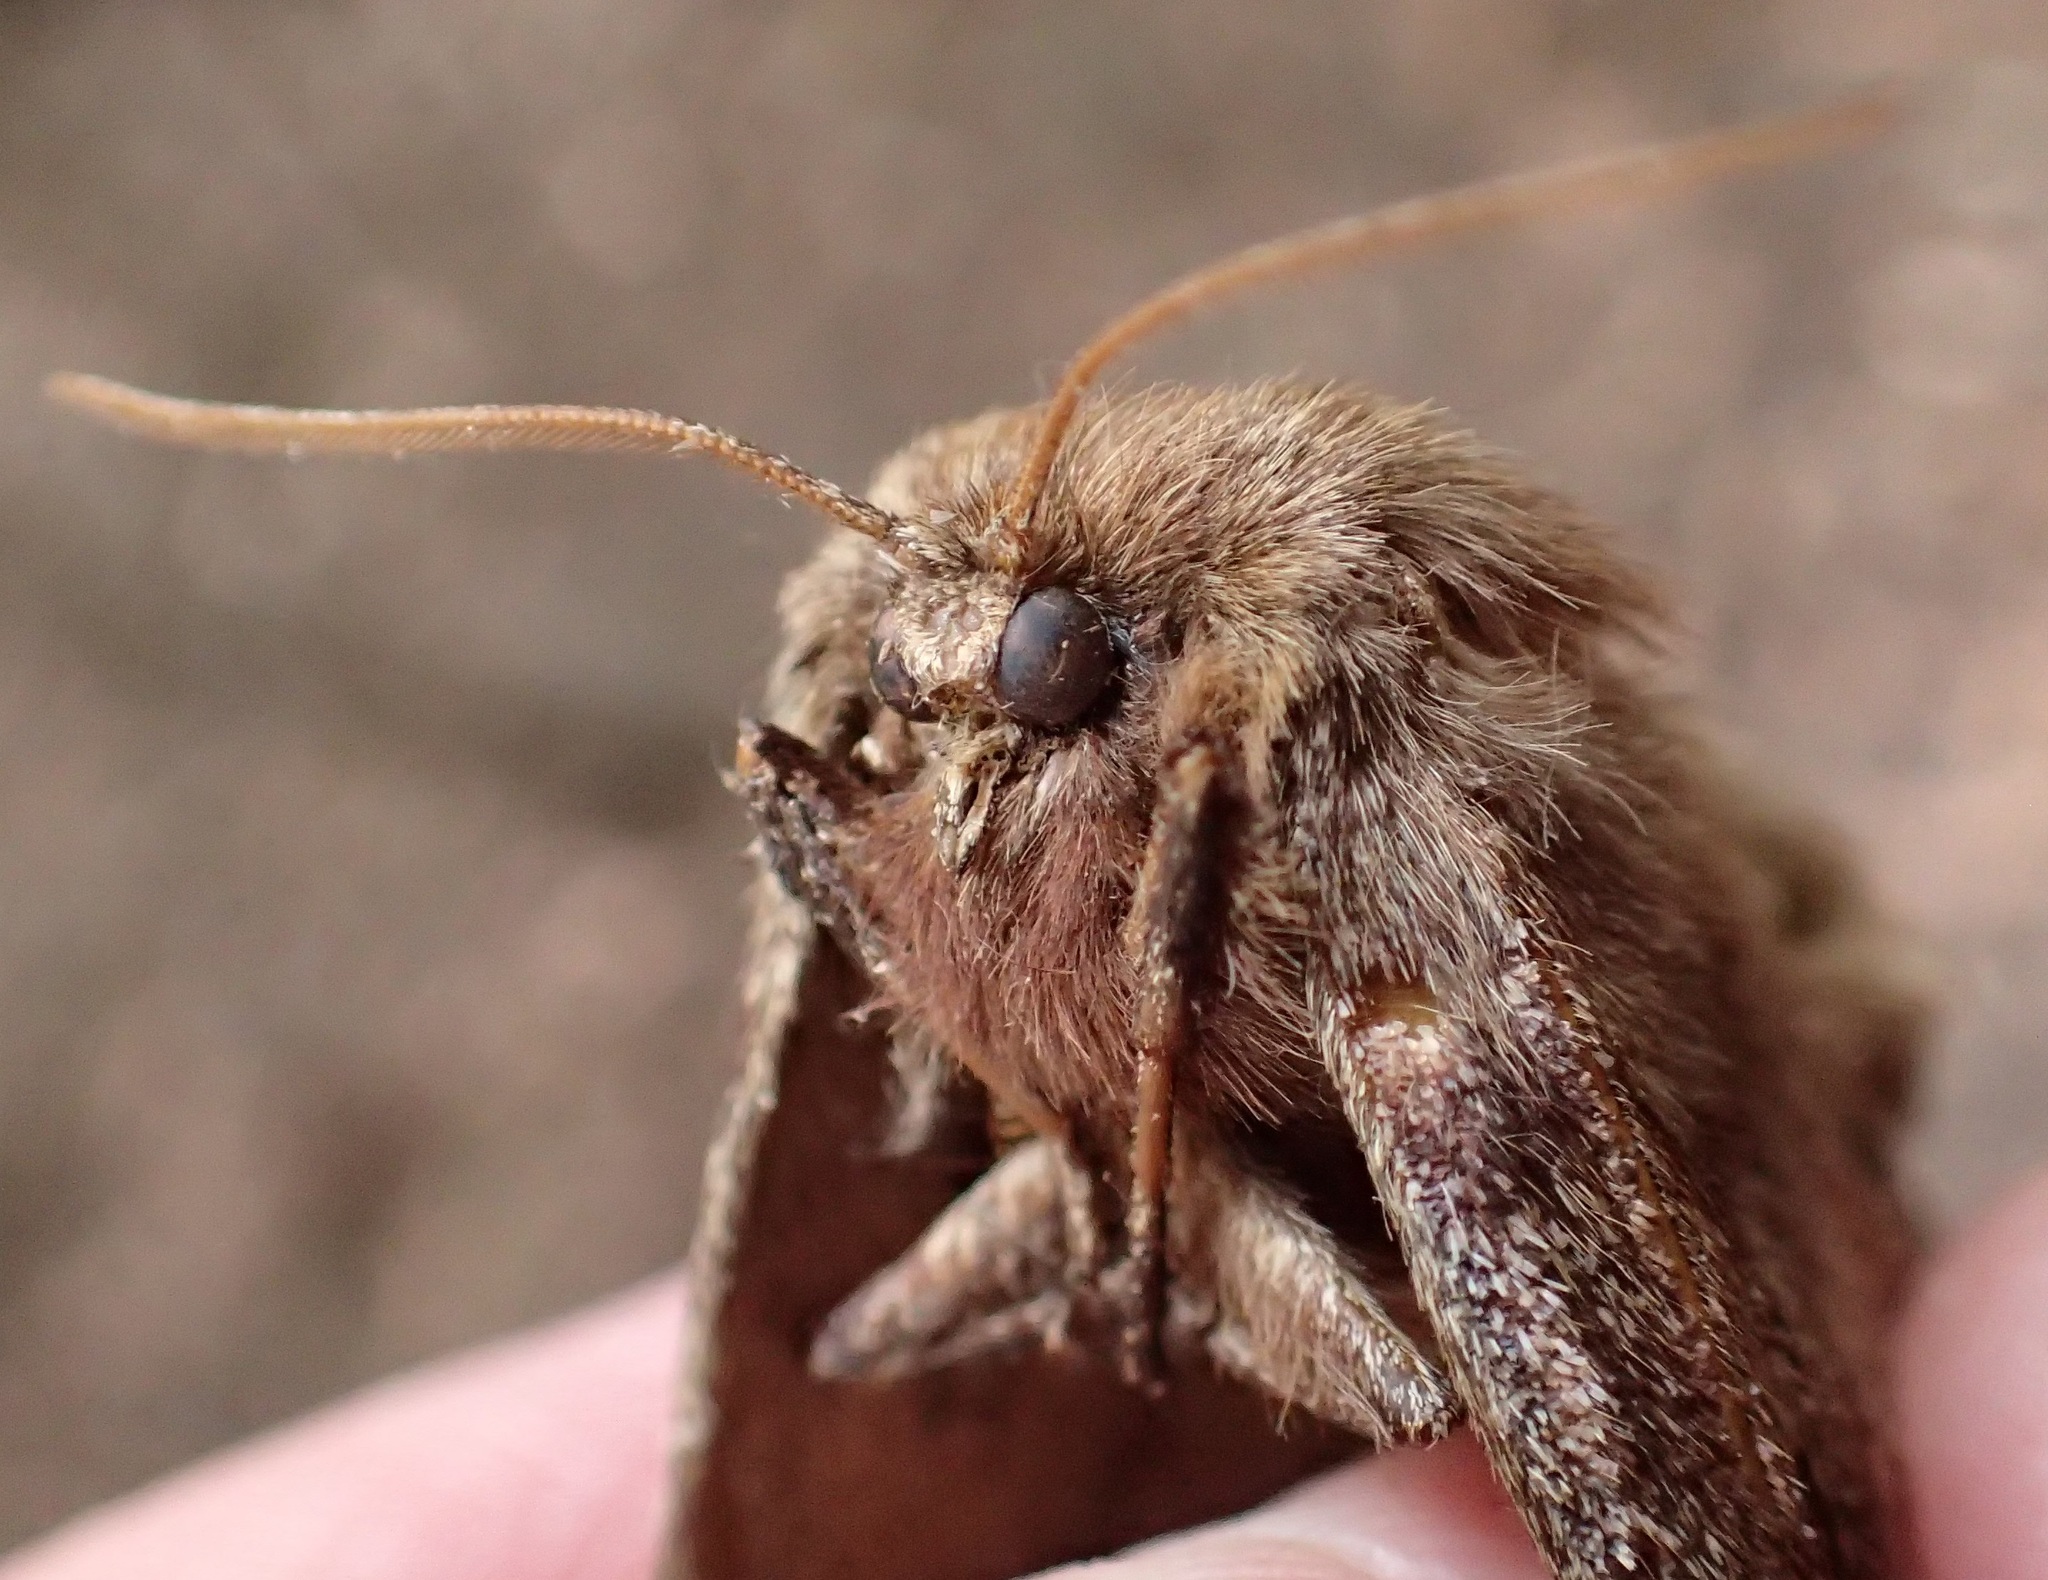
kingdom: Animalia
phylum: Arthropoda
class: Insecta
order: Lepidoptera
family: Anthelidae
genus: Anthela
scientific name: Anthela nicothoe
